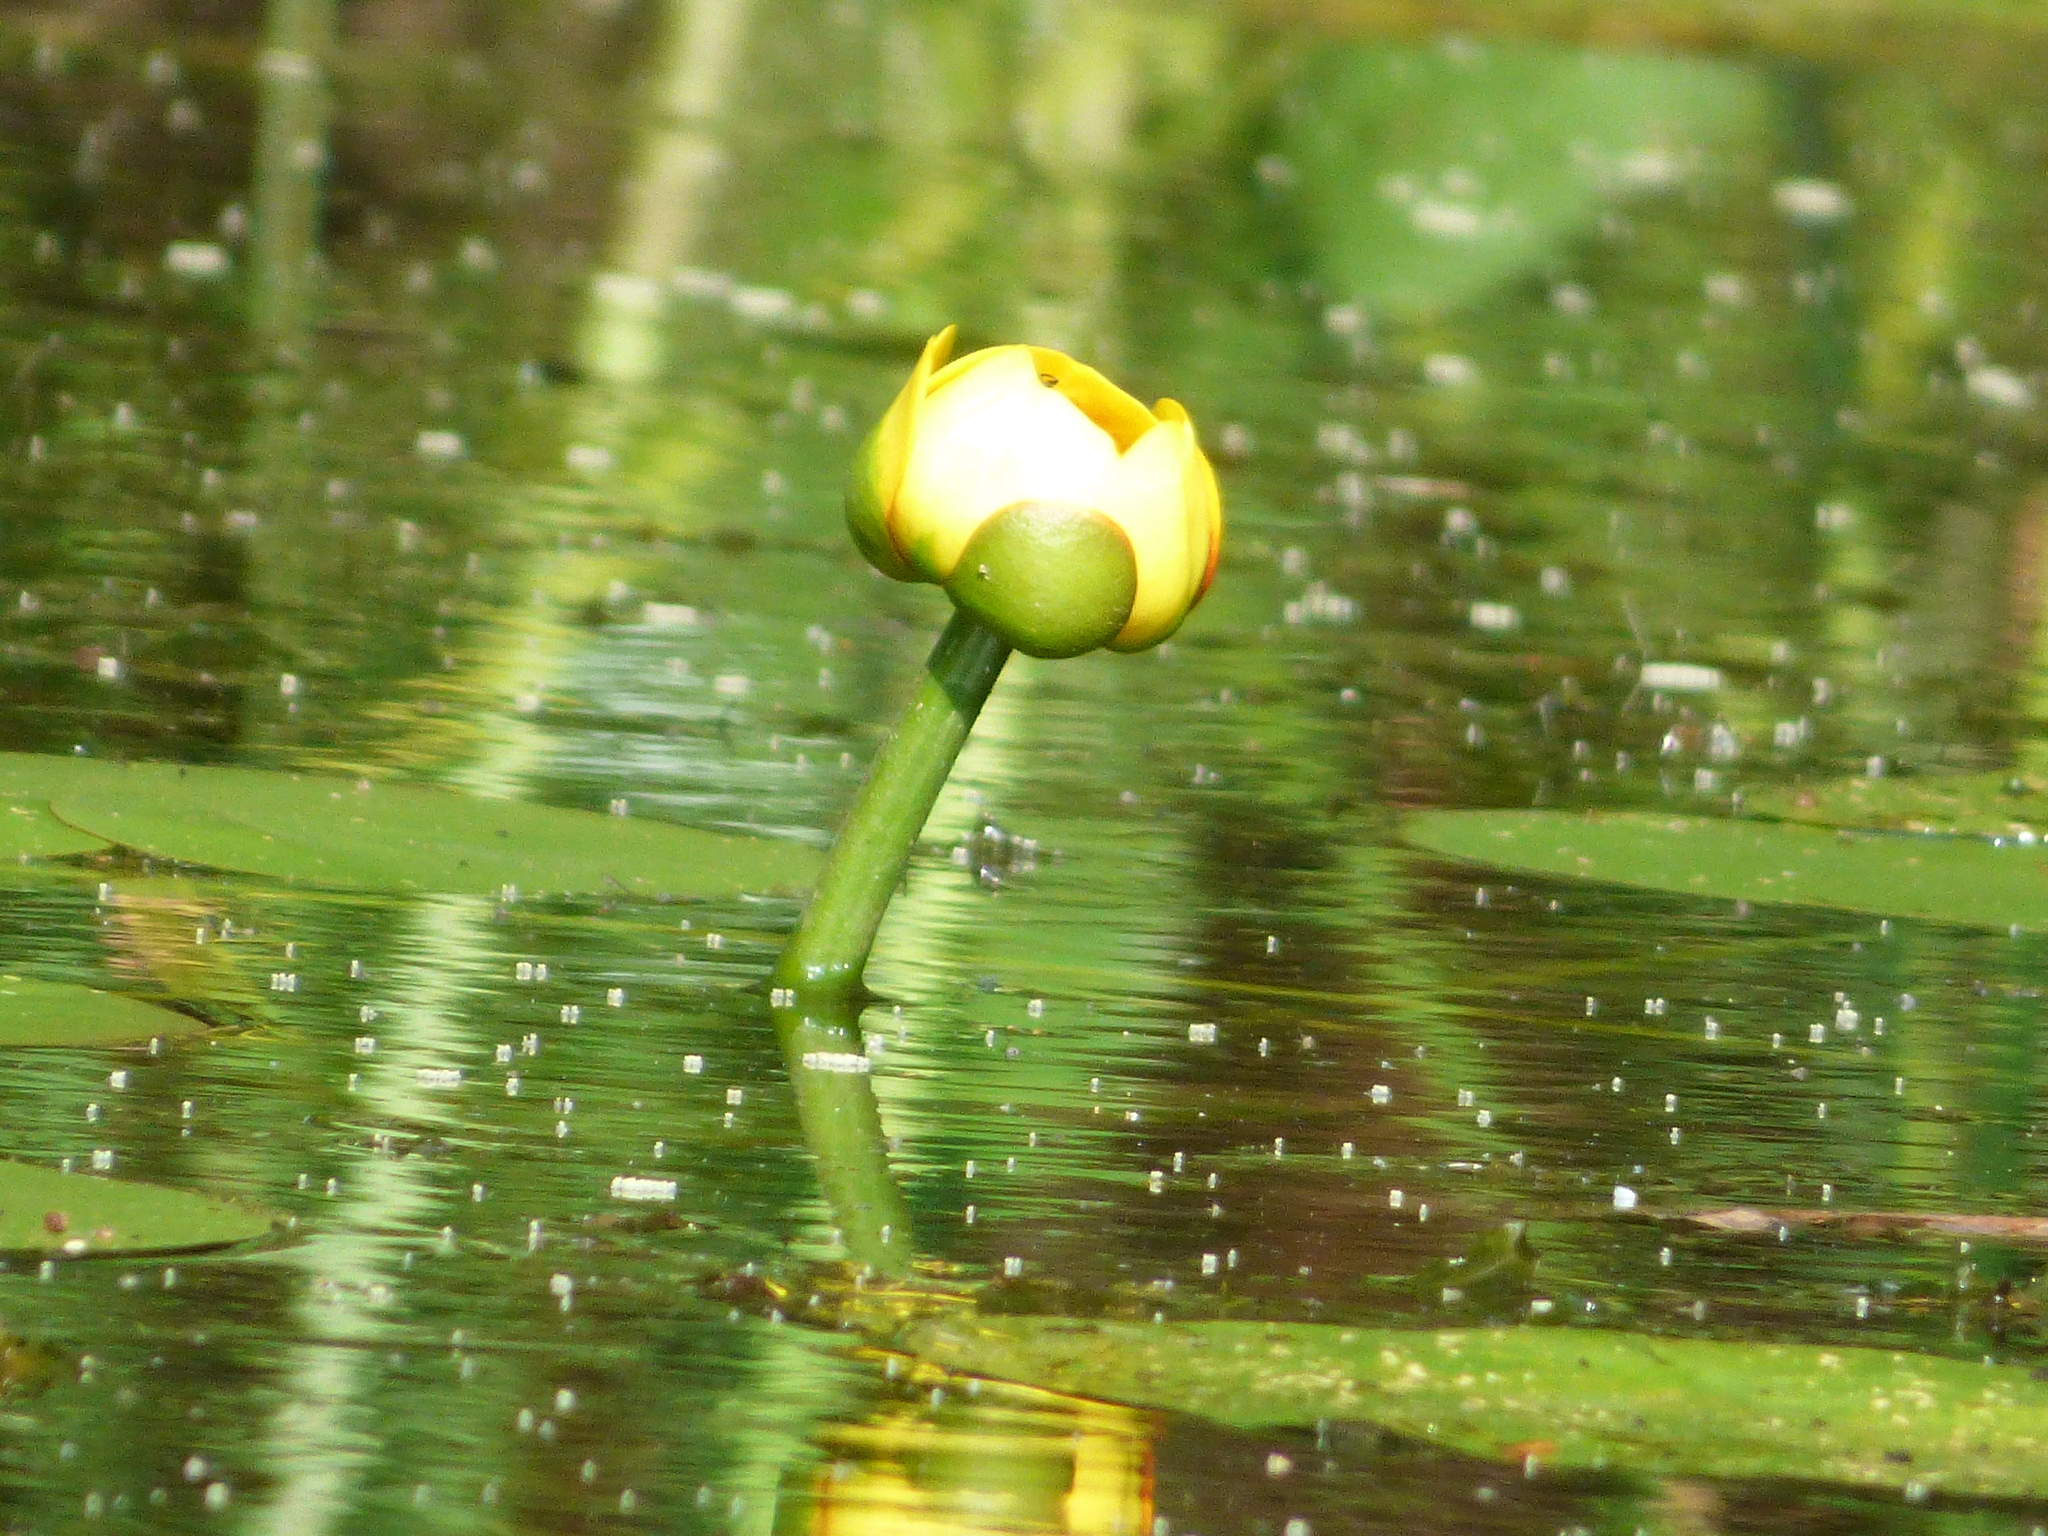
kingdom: Plantae
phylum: Tracheophyta
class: Magnoliopsida
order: Nymphaeales
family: Nymphaeaceae
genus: Nuphar
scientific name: Nuphar variegata
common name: Beaver-root
